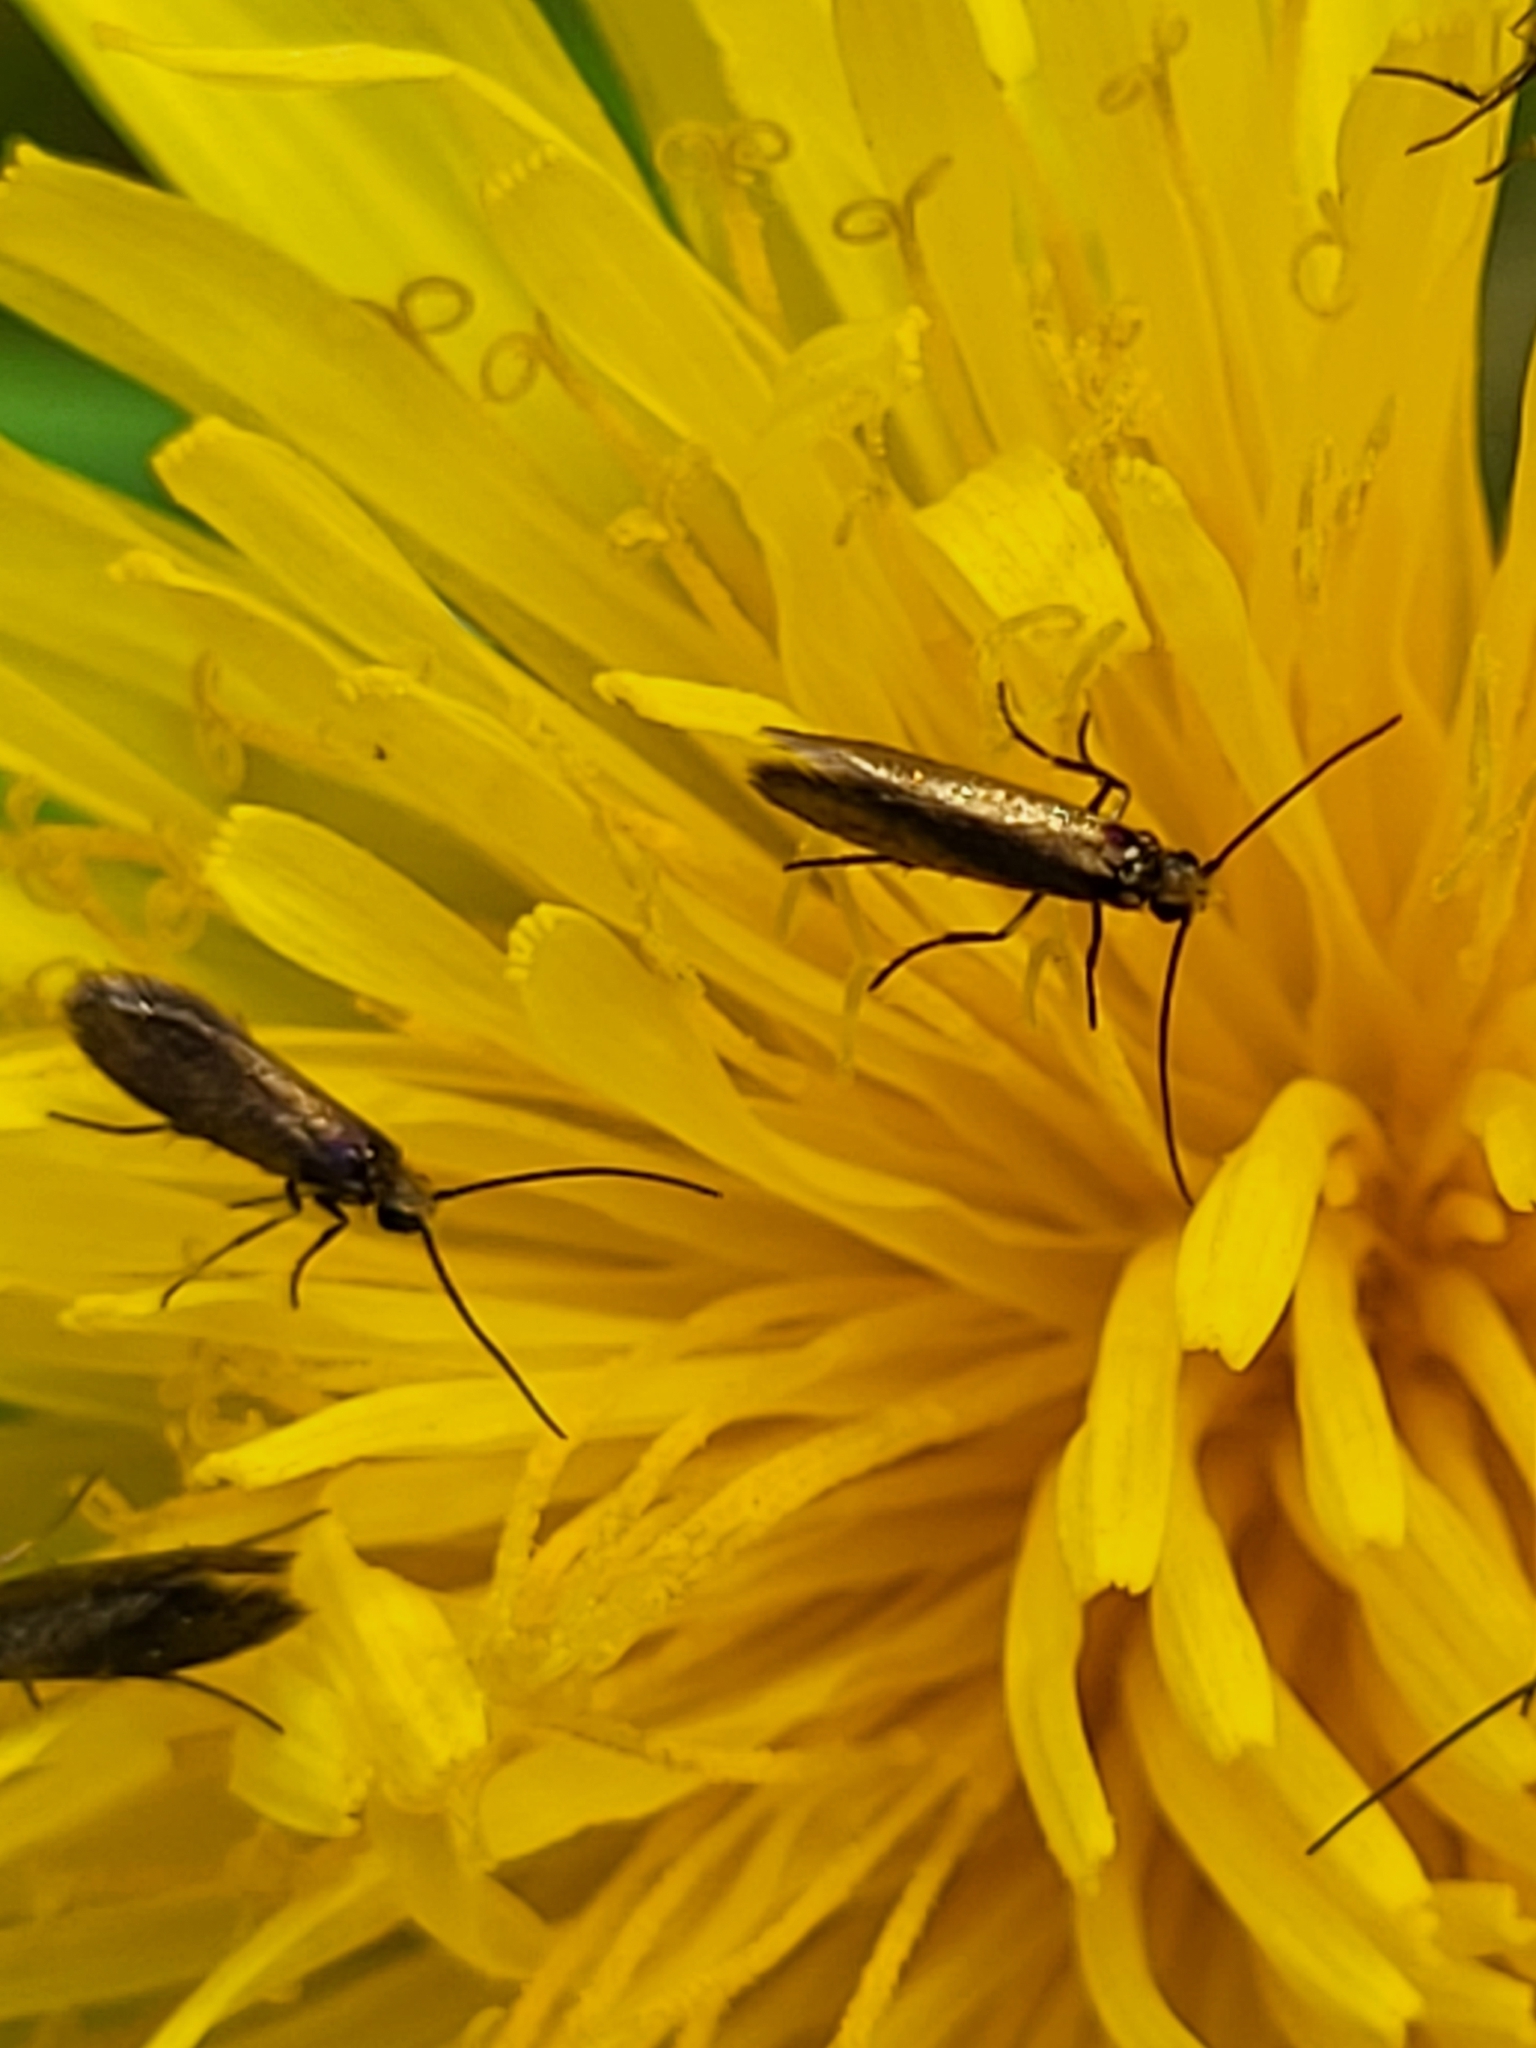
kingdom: Animalia
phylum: Arthropoda
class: Insecta
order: Lepidoptera
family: Micropterigidae
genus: Micropterix
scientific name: Micropterix calthella
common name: Plain gold
